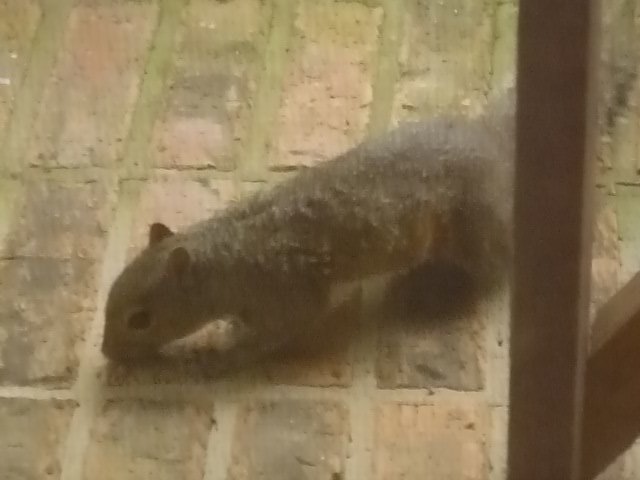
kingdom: Animalia
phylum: Chordata
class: Mammalia
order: Rodentia
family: Sciuridae
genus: Sciurus
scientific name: Sciurus carolinensis
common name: Eastern gray squirrel
